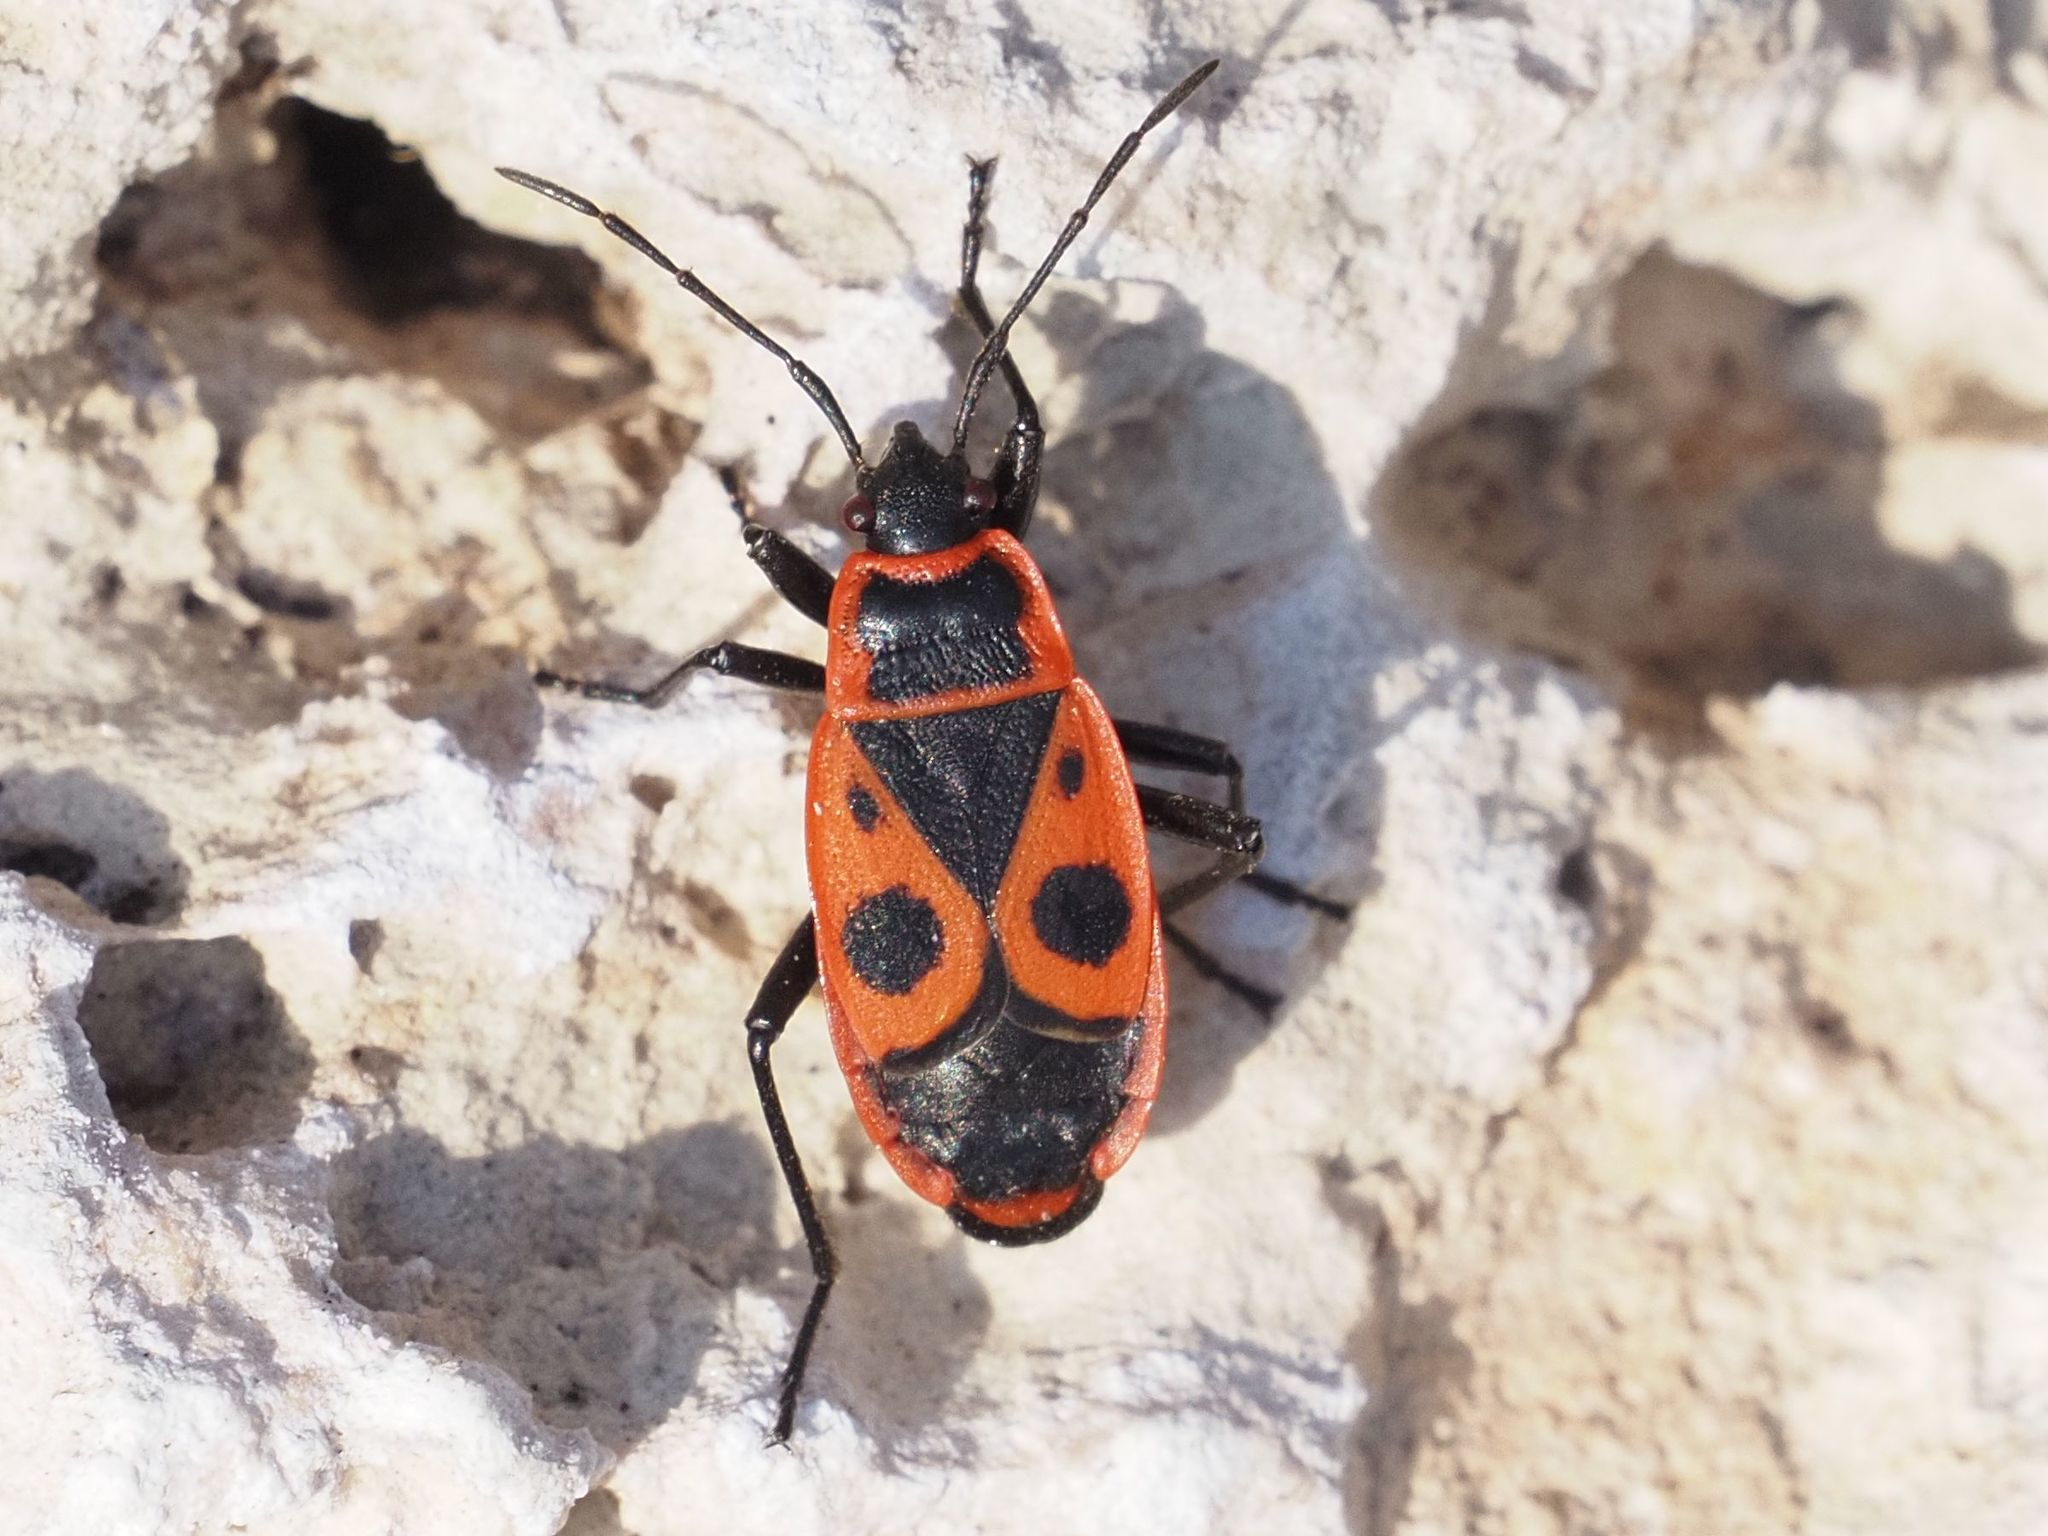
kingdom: Animalia
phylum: Arthropoda
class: Insecta
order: Hemiptera
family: Pyrrhocoridae
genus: Pyrrhocoris
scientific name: Pyrrhocoris apterus
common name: Firebug
